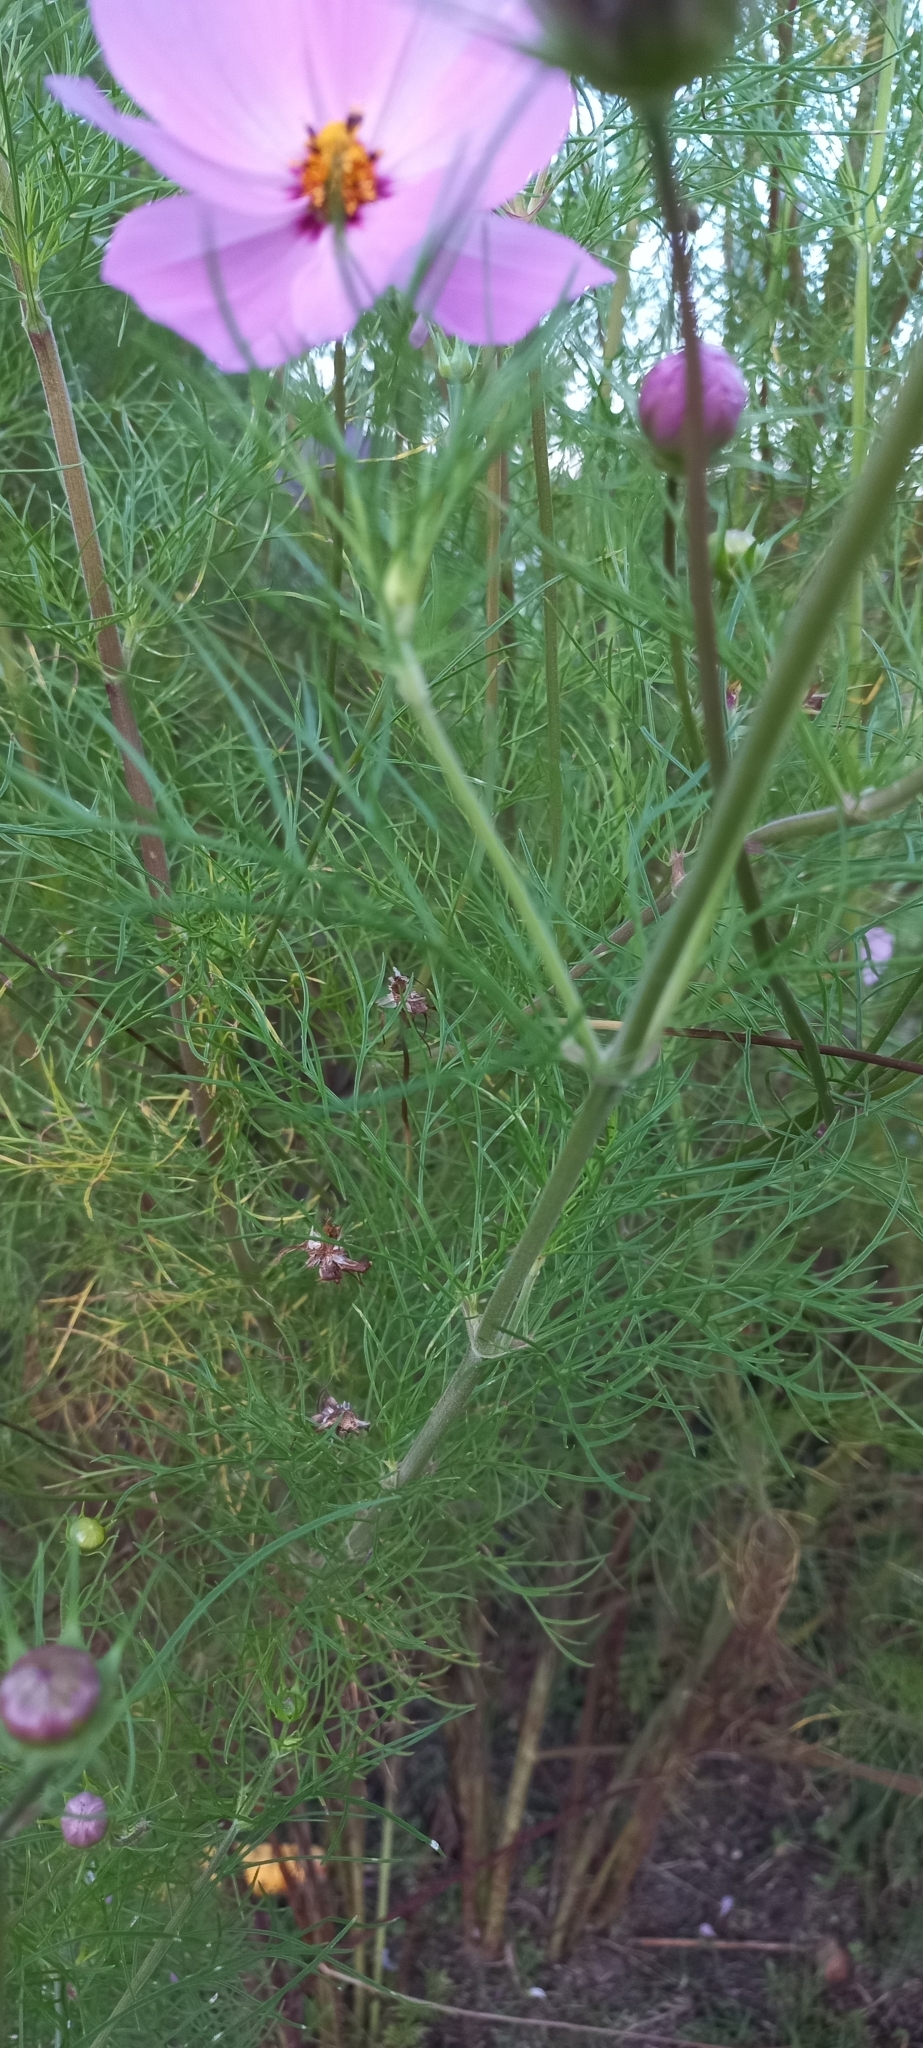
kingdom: Plantae
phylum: Tracheophyta
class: Magnoliopsida
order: Asterales
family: Asteraceae
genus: Cosmos
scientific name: Cosmos bipinnatus
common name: Garden cosmos
